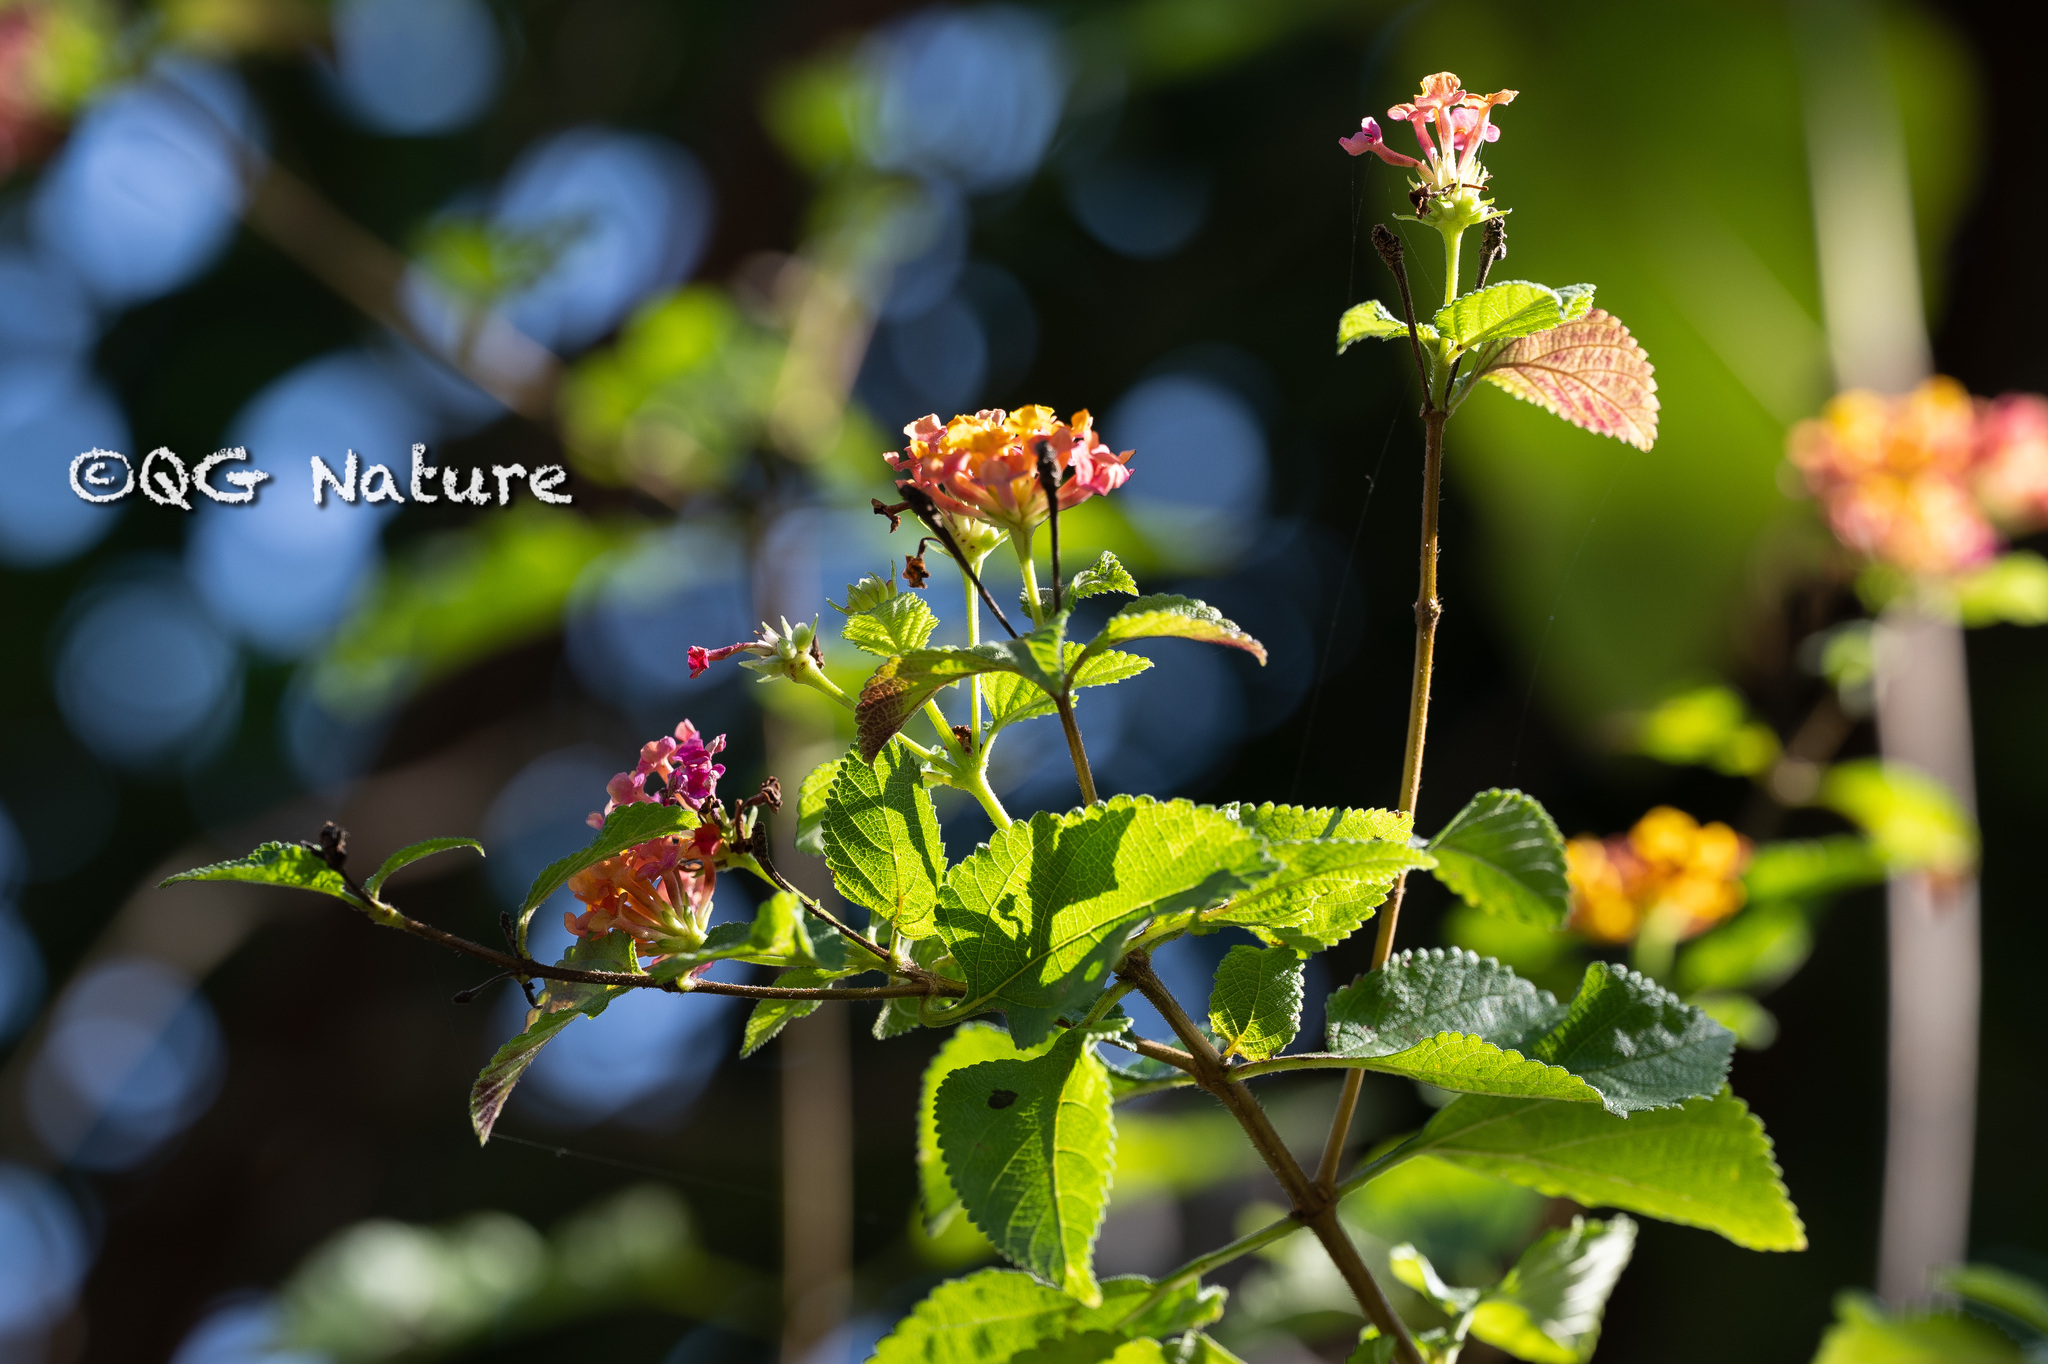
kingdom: Plantae
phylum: Tracheophyta
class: Magnoliopsida
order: Lamiales
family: Verbenaceae
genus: Lantana
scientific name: Lantana camara
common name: Lantana
